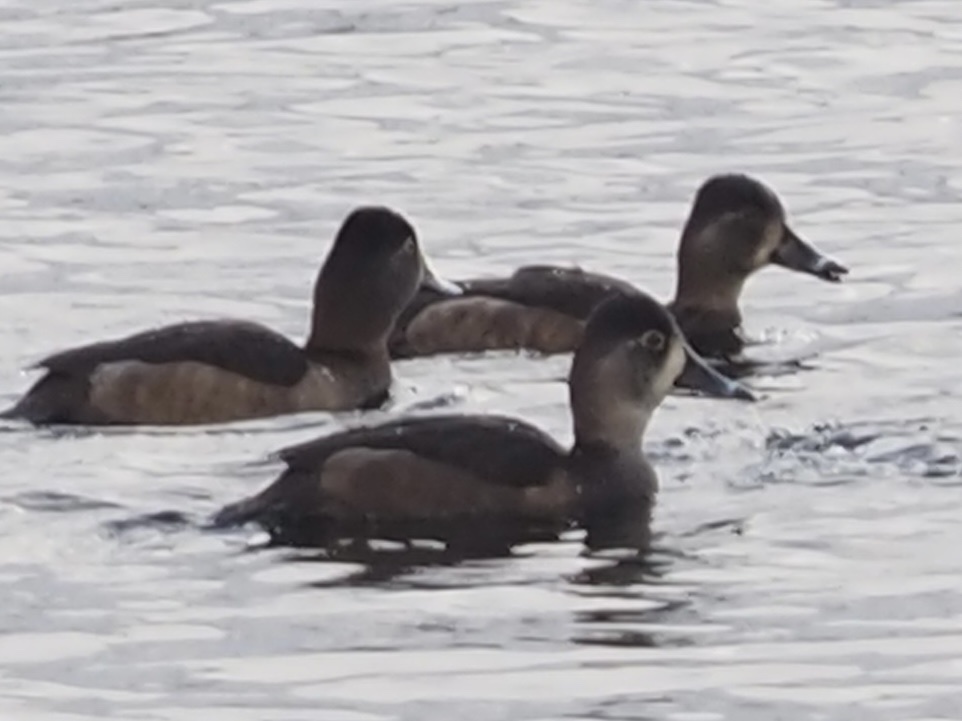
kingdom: Animalia
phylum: Chordata
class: Aves
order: Anseriformes
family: Anatidae
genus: Aythya
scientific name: Aythya collaris
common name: Ring-necked duck
